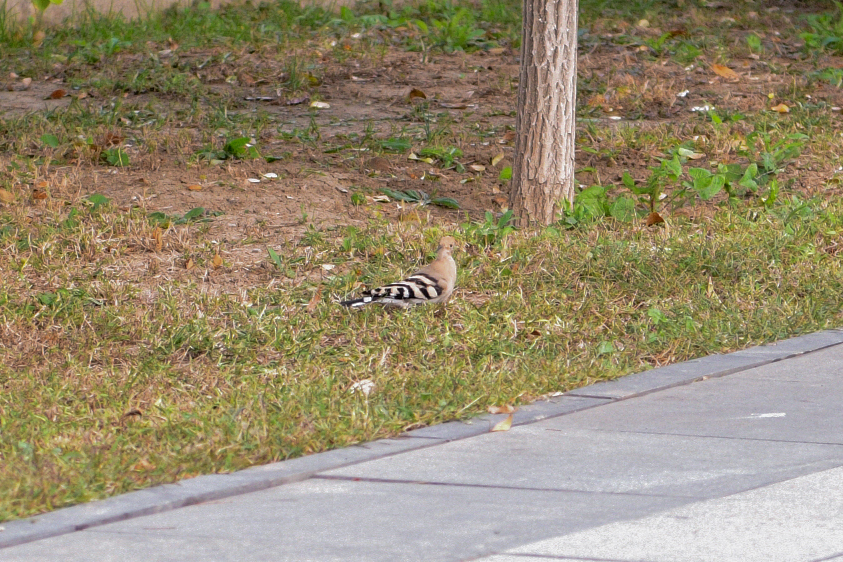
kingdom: Animalia
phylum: Chordata
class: Aves
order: Bucerotiformes
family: Upupidae
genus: Upupa
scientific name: Upupa epops
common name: Eurasian hoopoe
